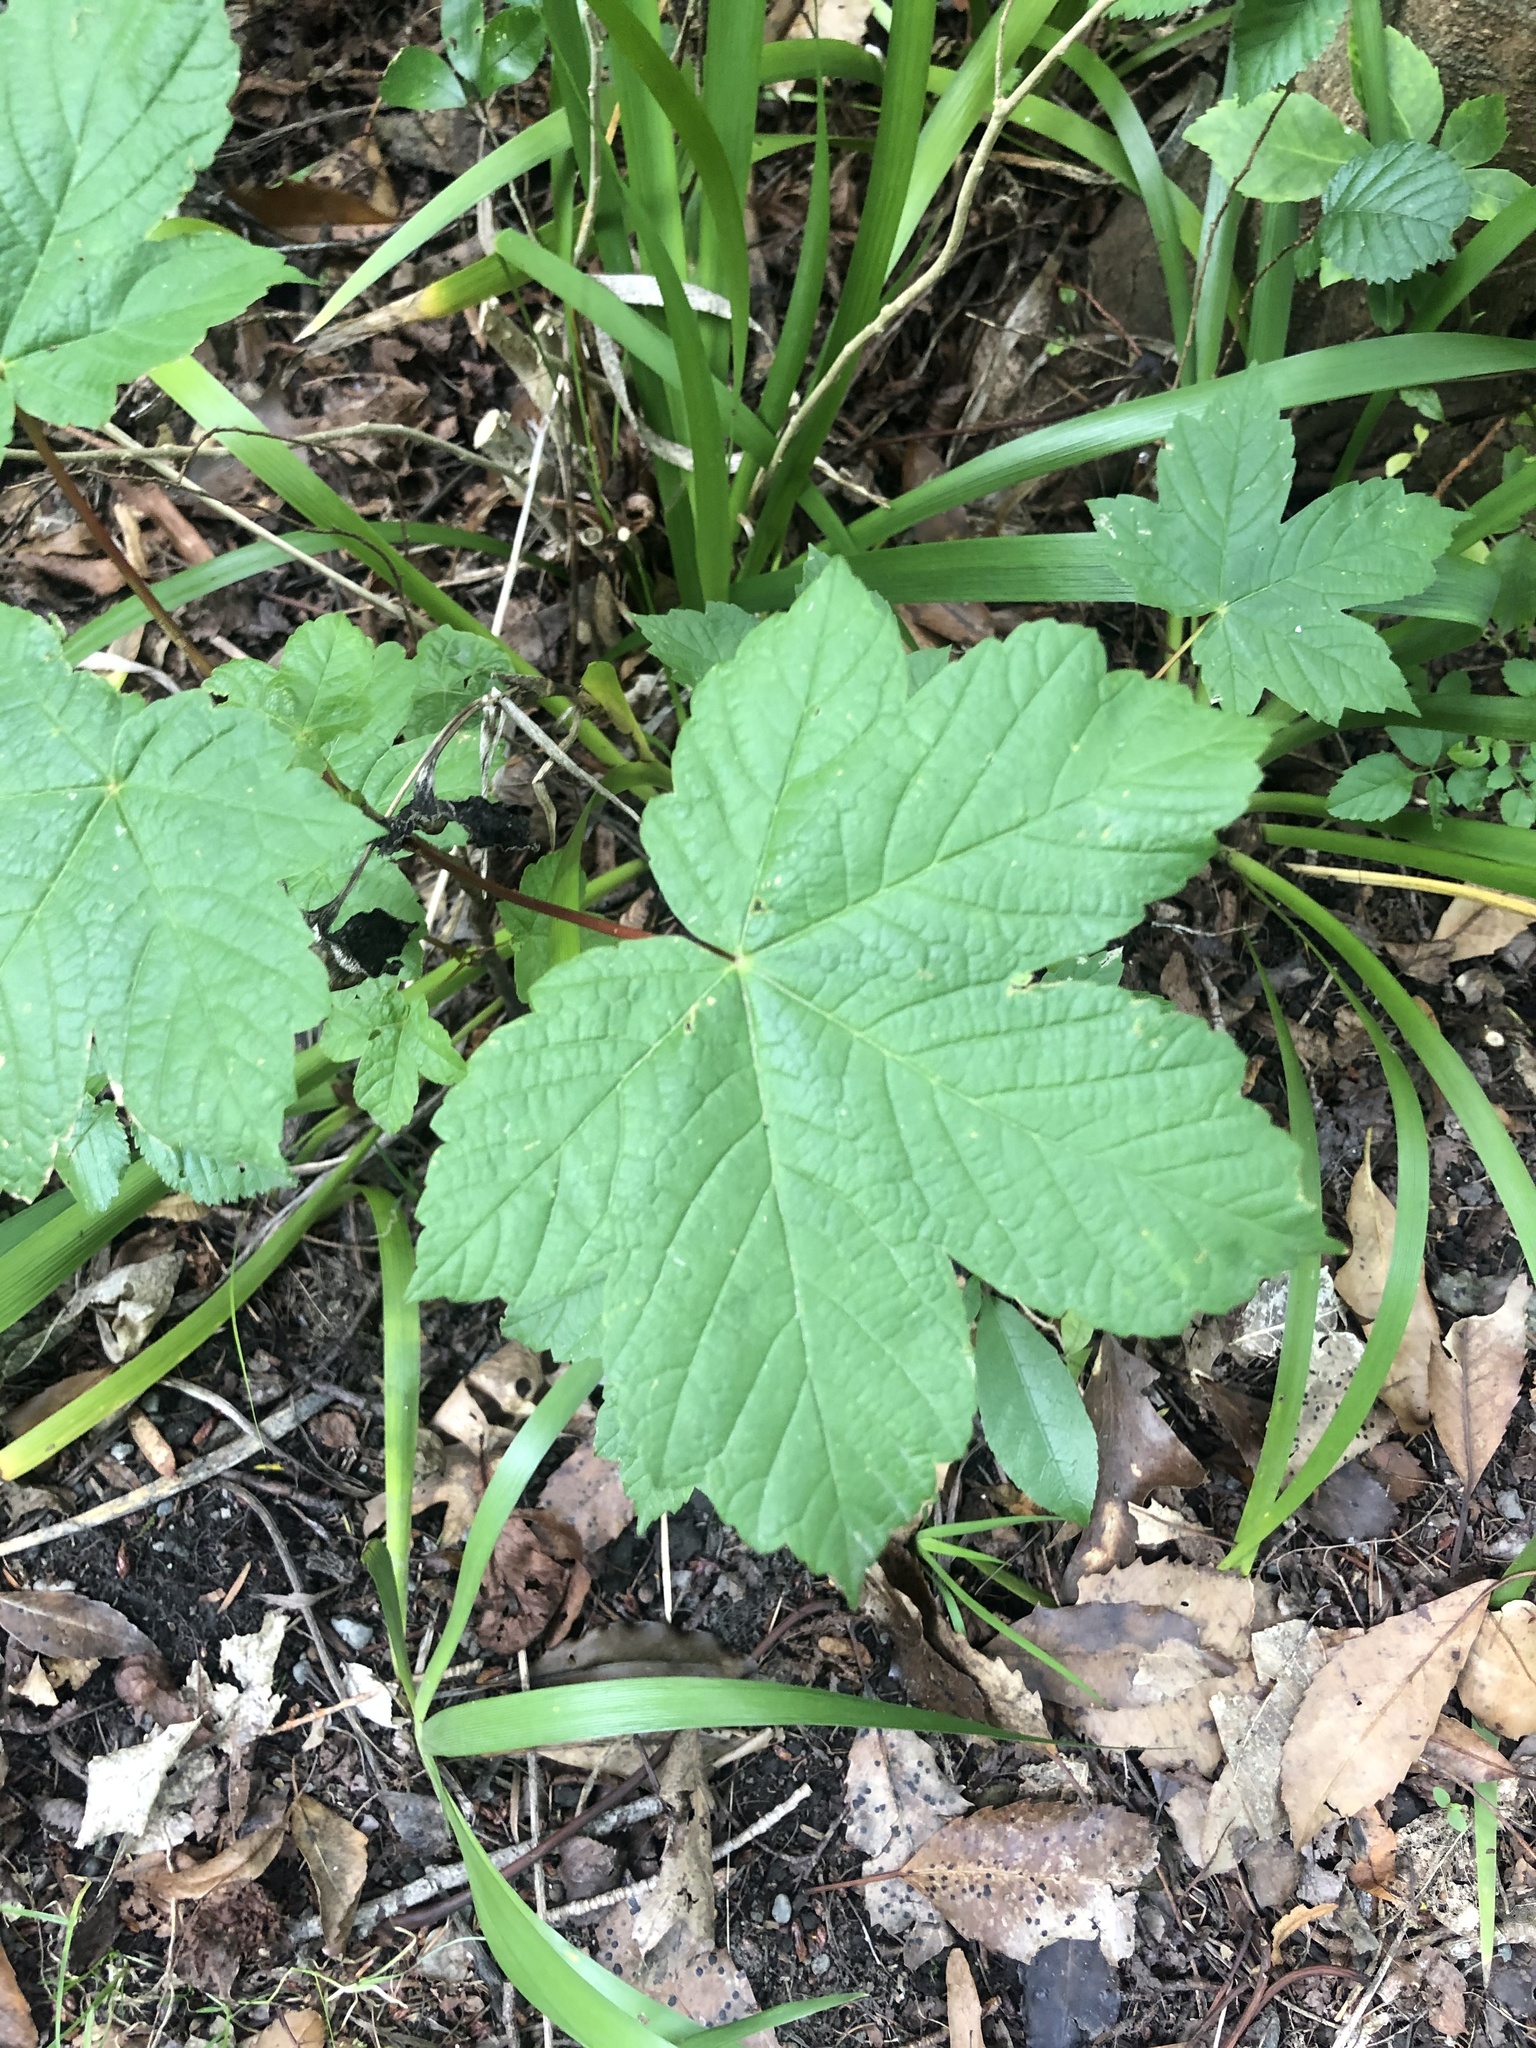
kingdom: Plantae
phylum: Tracheophyta
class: Magnoliopsida
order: Sapindales
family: Sapindaceae
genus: Acer
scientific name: Acer pseudoplatanus
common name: Sycamore
